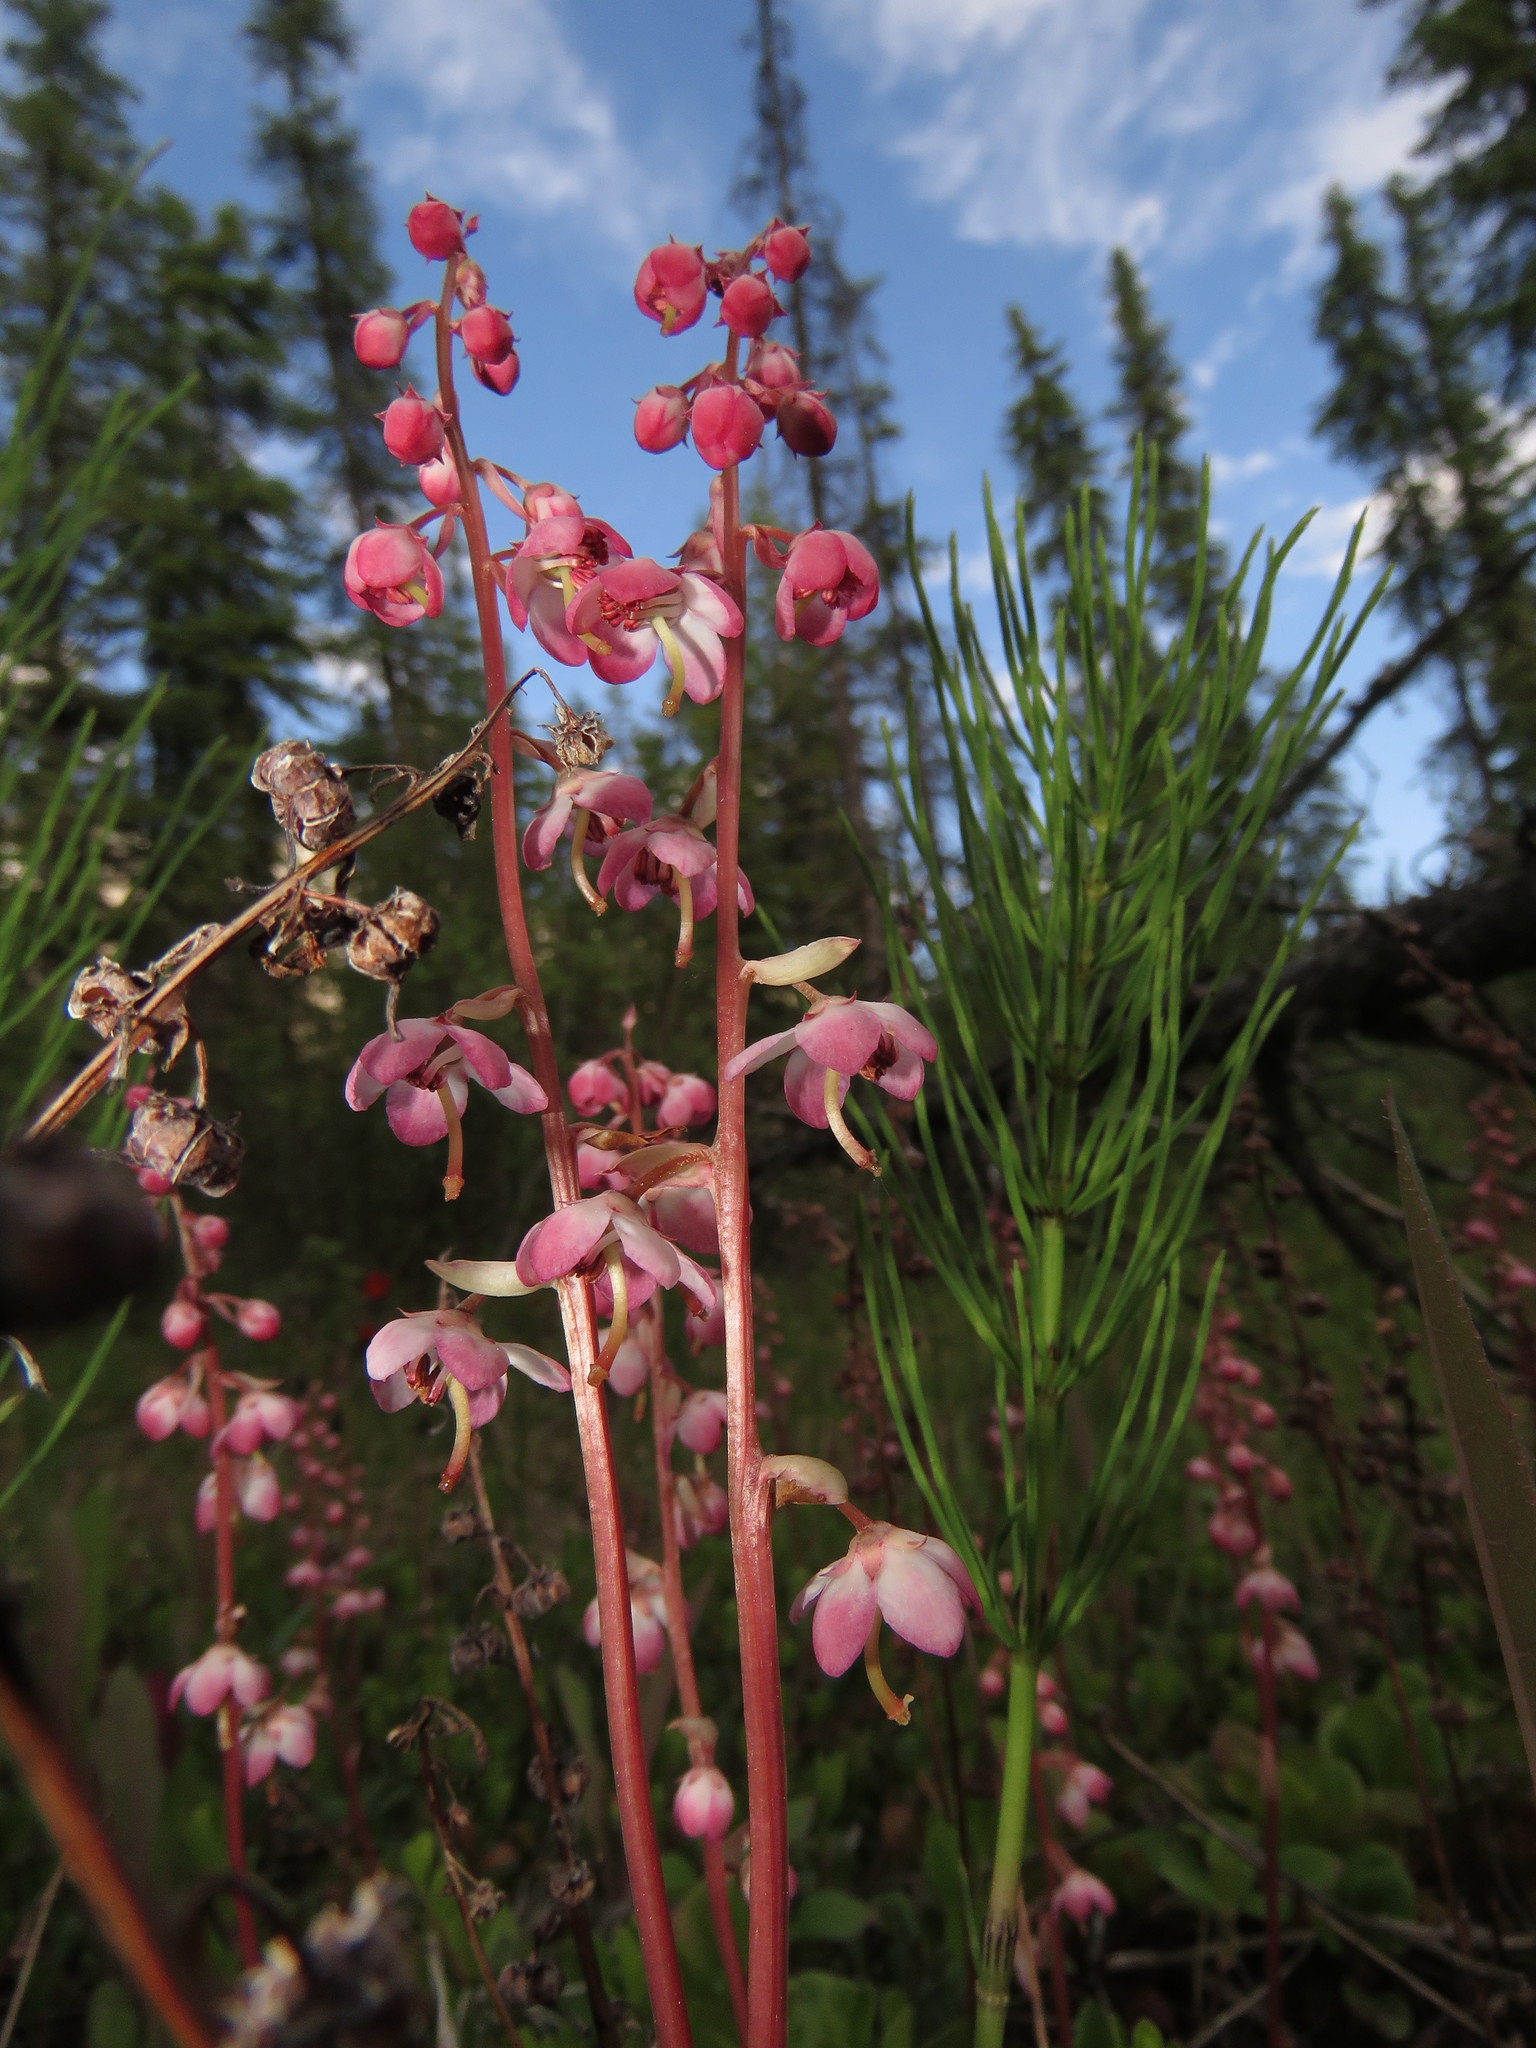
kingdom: Plantae
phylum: Tracheophyta
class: Magnoliopsida
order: Ericales
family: Ericaceae
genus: Pyrola
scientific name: Pyrola asarifolia
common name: Bog wintergreen
